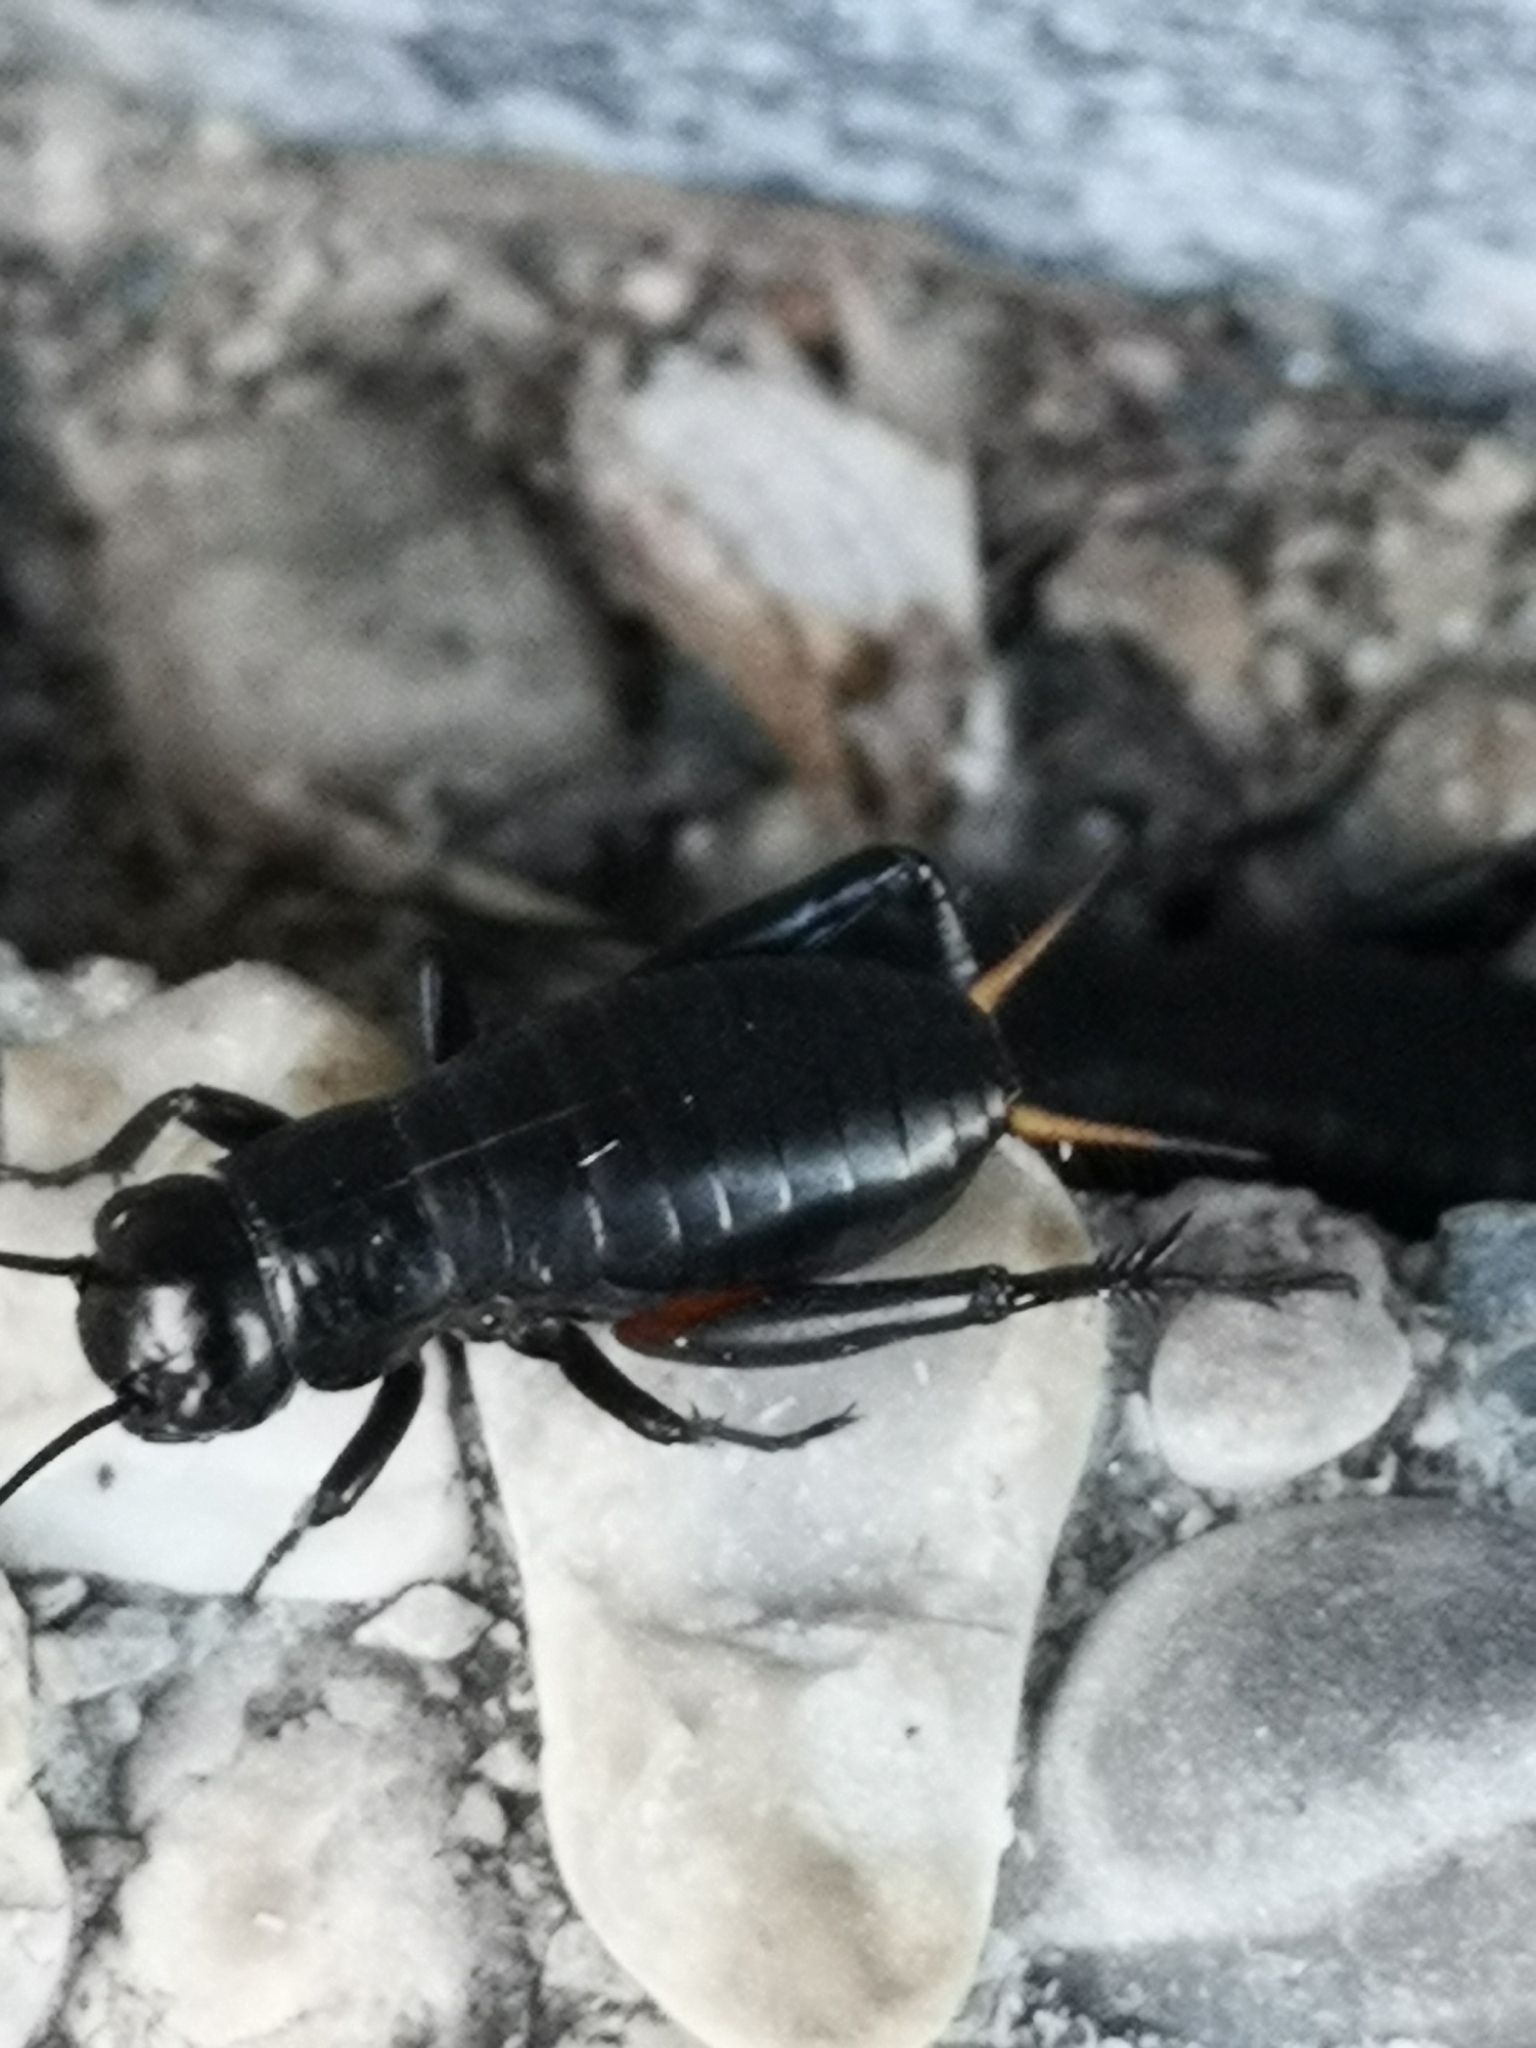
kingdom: Animalia
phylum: Arthropoda
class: Insecta
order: Orthoptera
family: Gryllidae
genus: Gryllus
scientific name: Gryllus campestris
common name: Field cricket
